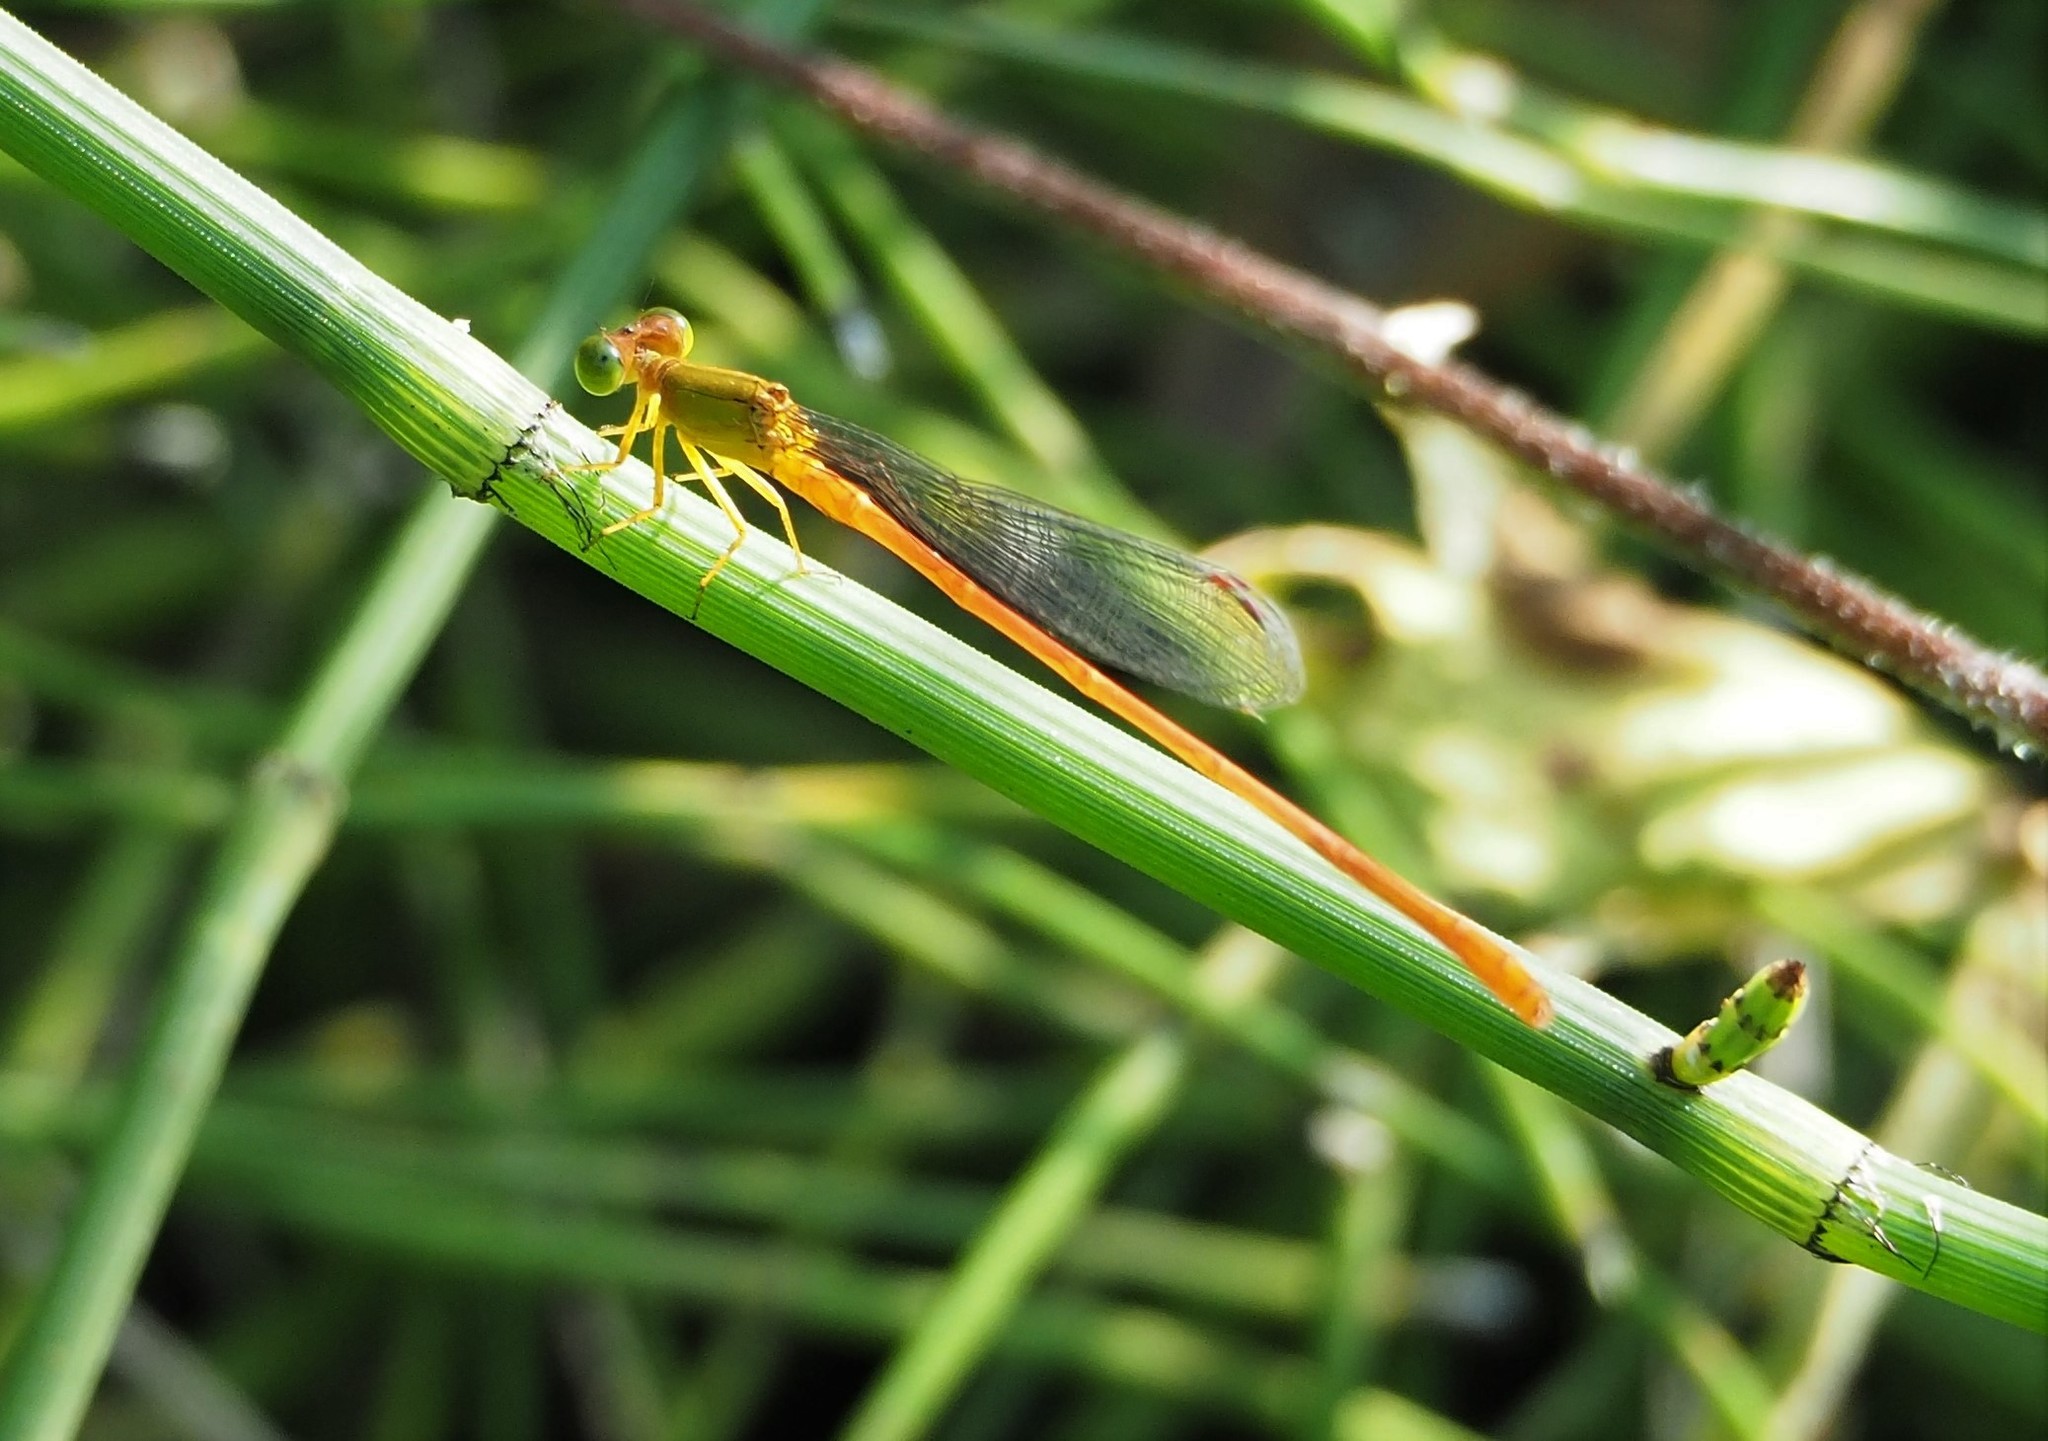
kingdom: Animalia
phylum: Arthropoda
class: Insecta
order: Odonata
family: Coenagrionidae
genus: Ceriagrion
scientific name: Ceriagrion auranticum
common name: Orange-tailed sprite
